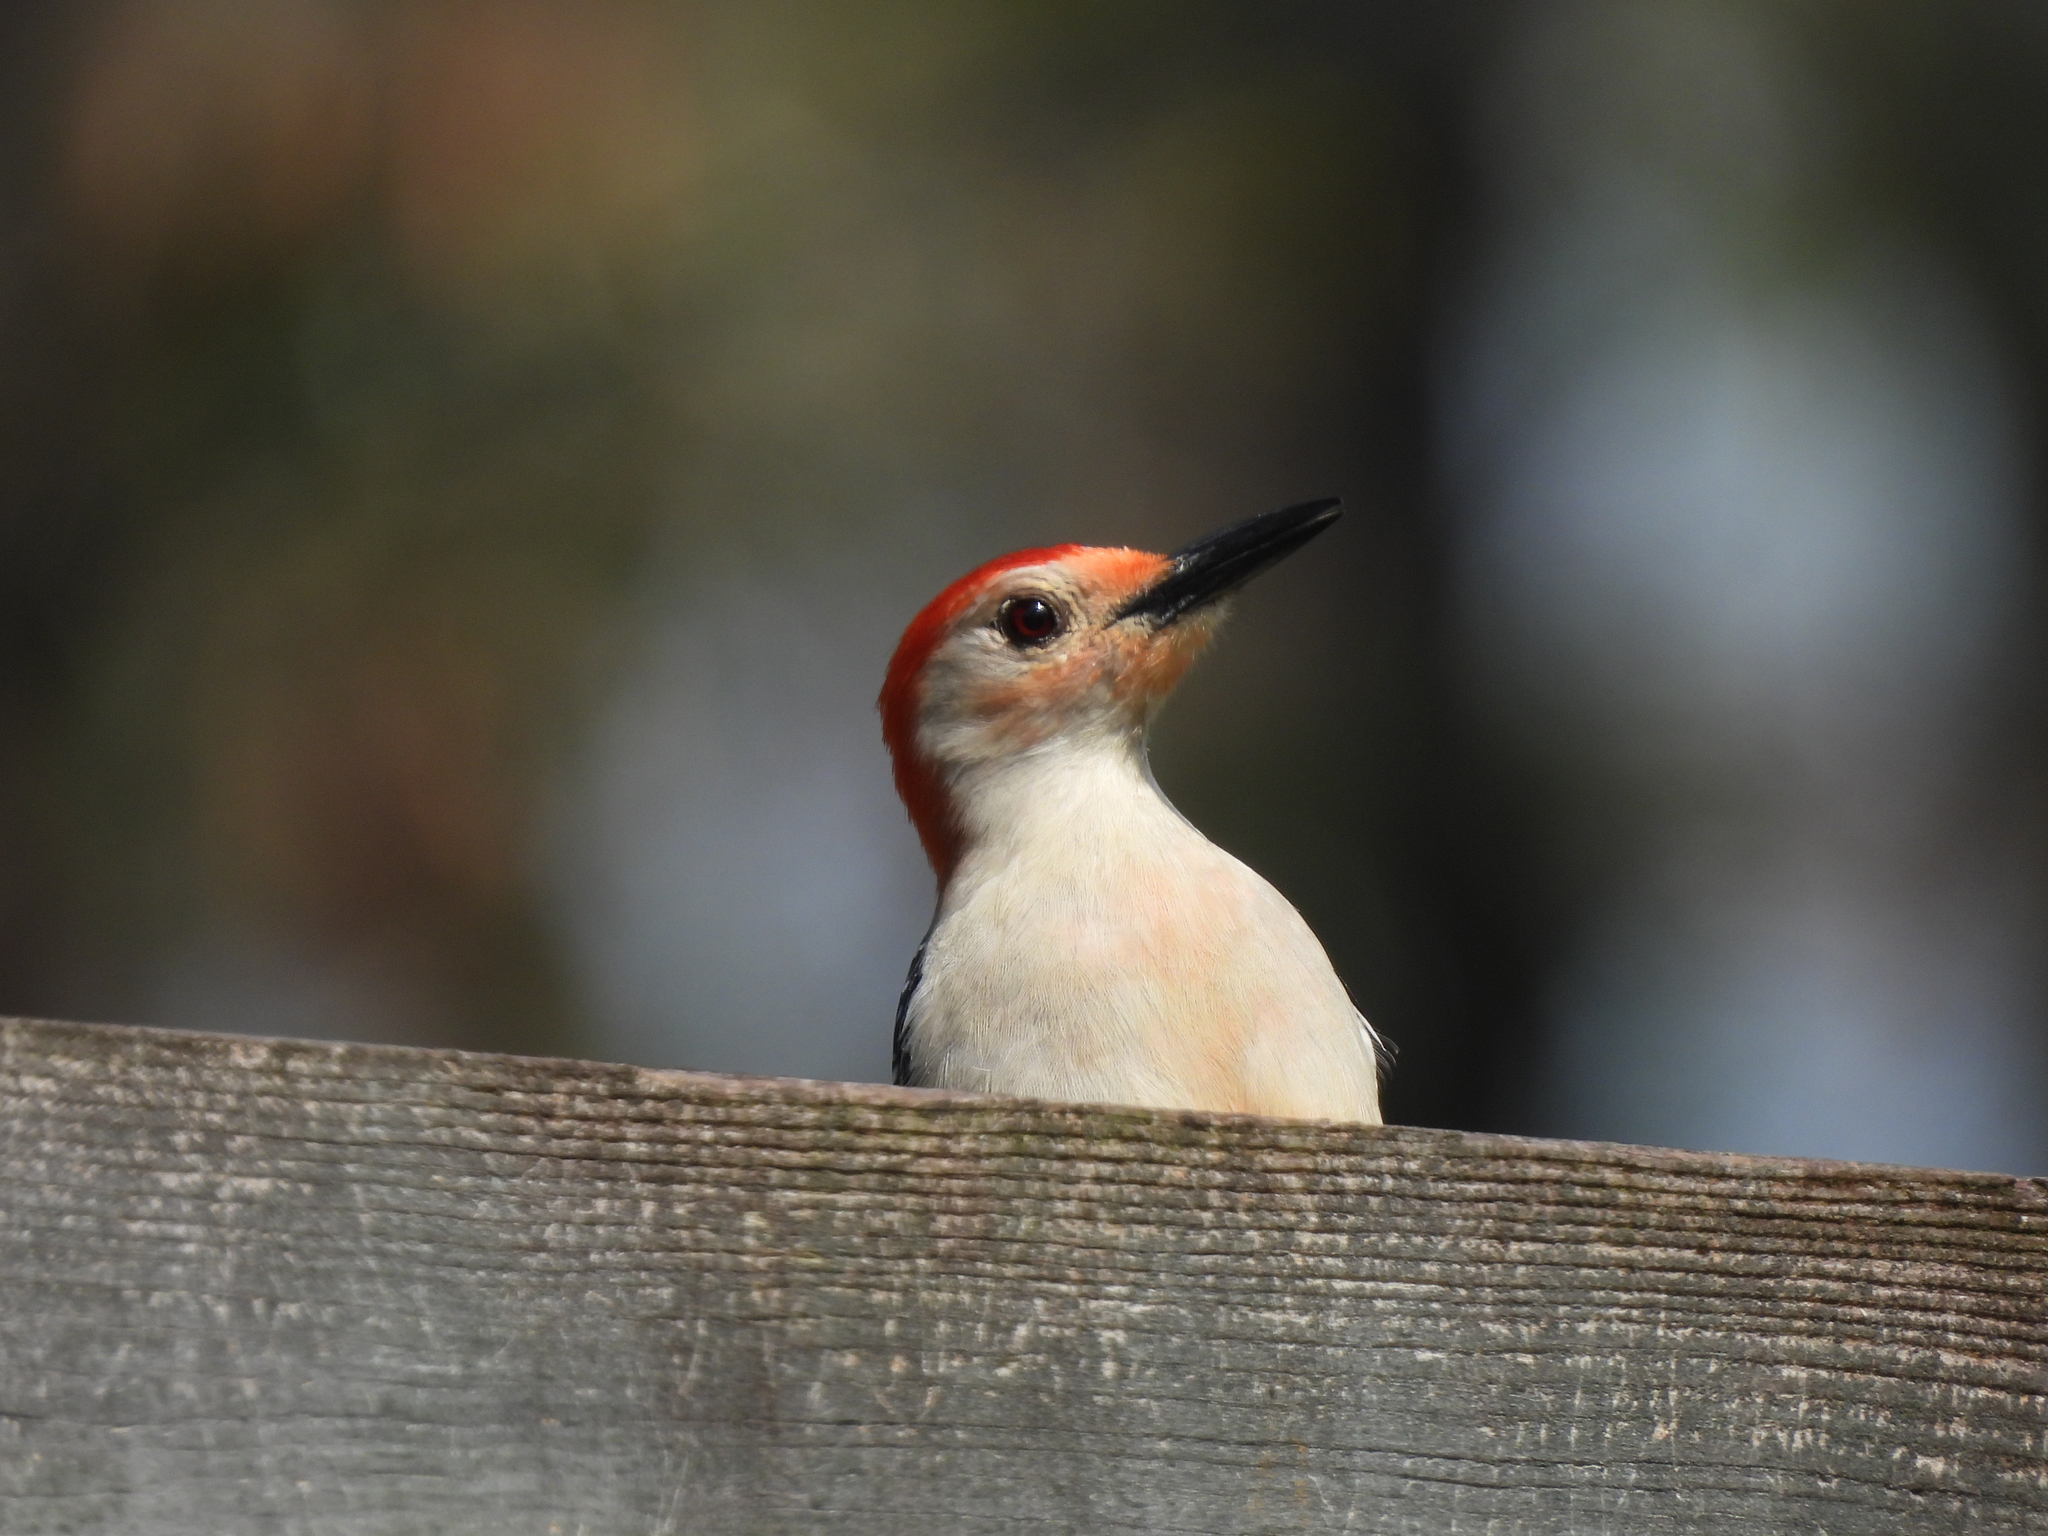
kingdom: Animalia
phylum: Chordata
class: Aves
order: Piciformes
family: Picidae
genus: Melanerpes
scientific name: Melanerpes carolinus
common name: Red-bellied woodpecker
